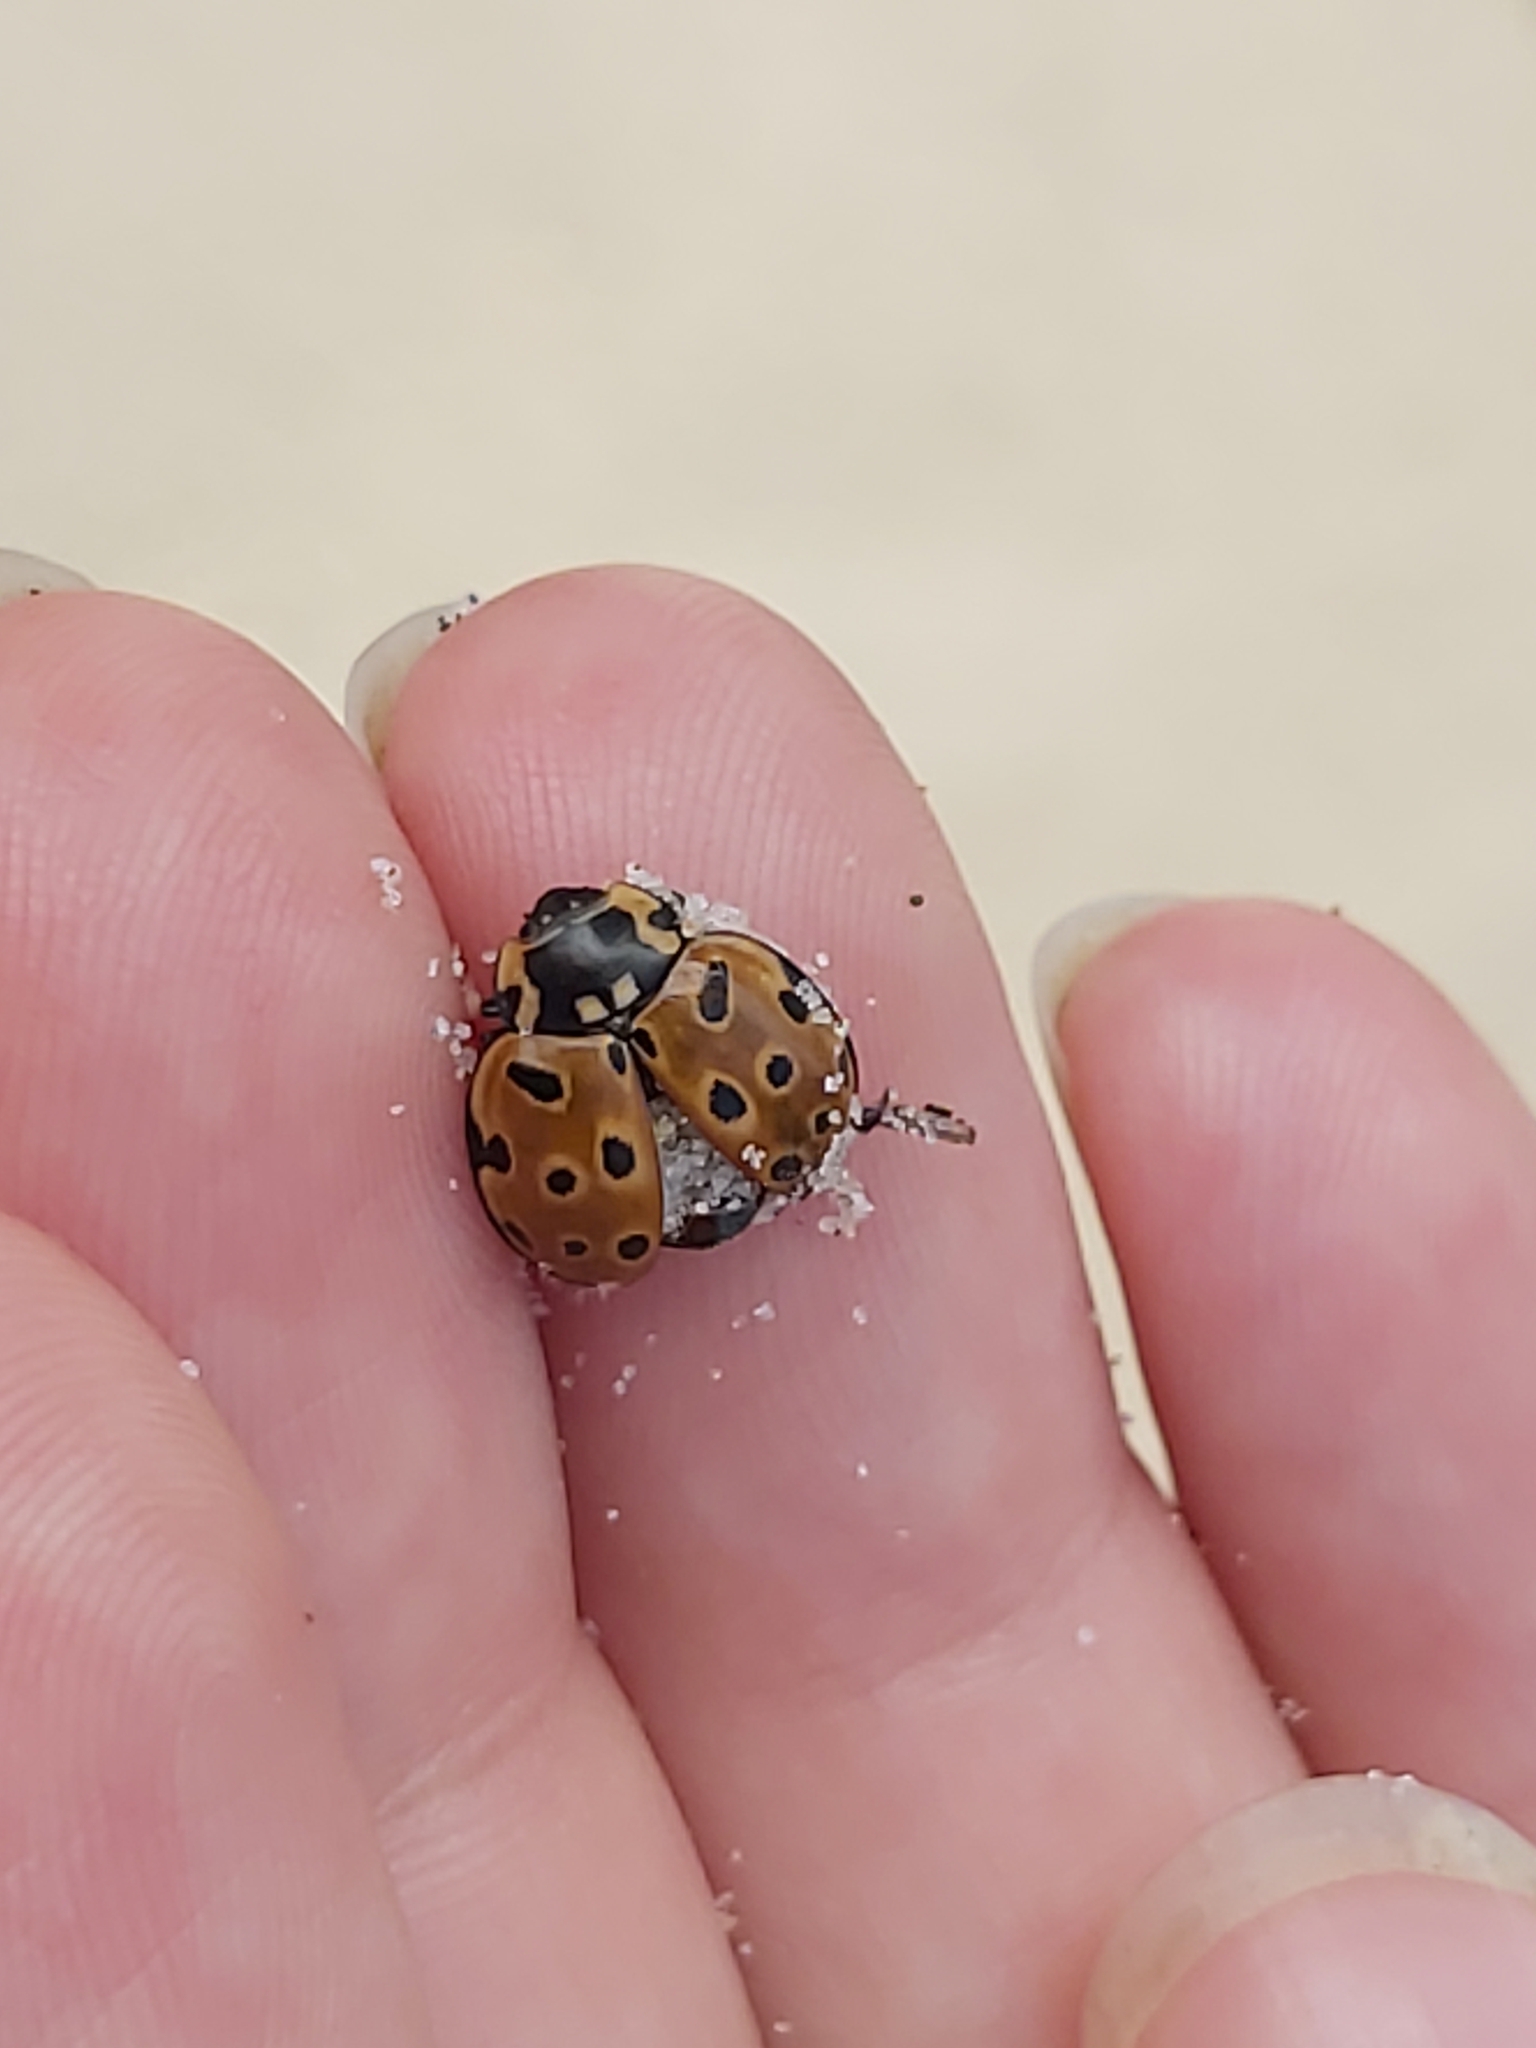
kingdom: Animalia
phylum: Arthropoda
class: Insecta
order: Coleoptera
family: Coccinellidae
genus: Anatis
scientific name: Anatis ocellata
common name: Eyed ladybird
